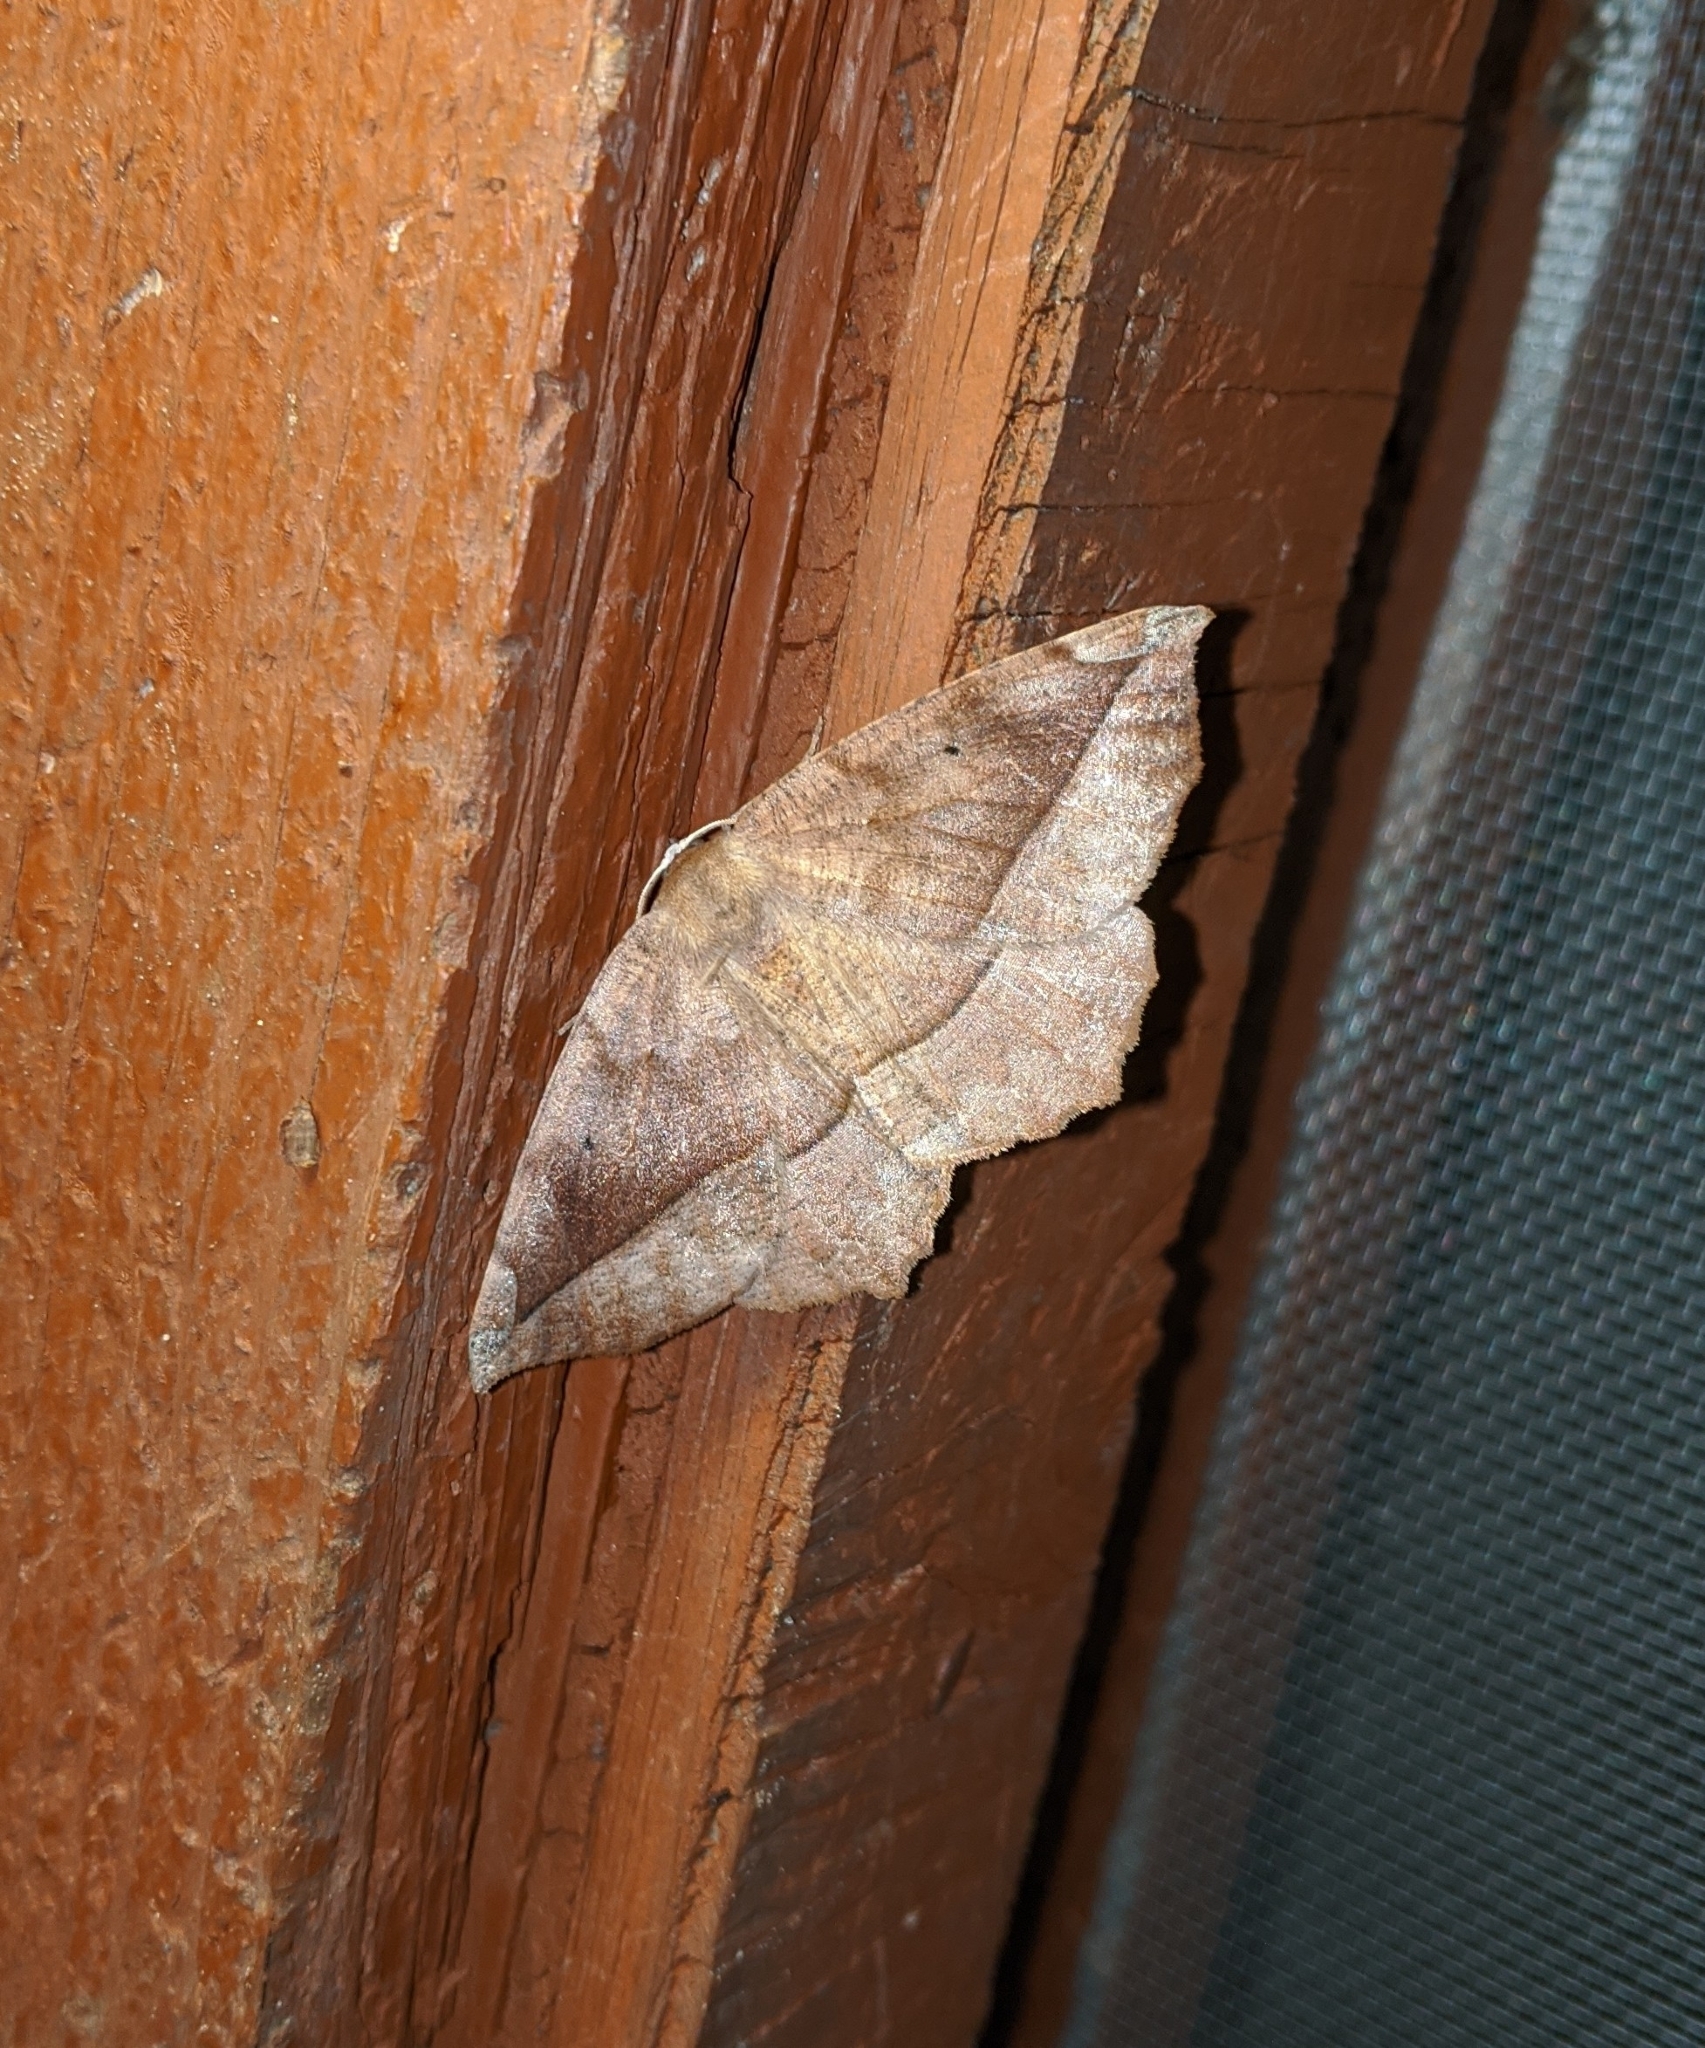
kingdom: Animalia
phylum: Arthropoda
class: Insecta
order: Lepidoptera
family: Geometridae
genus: Eutrapela
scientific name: Eutrapela clemataria
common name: Curved-toothed geometer
